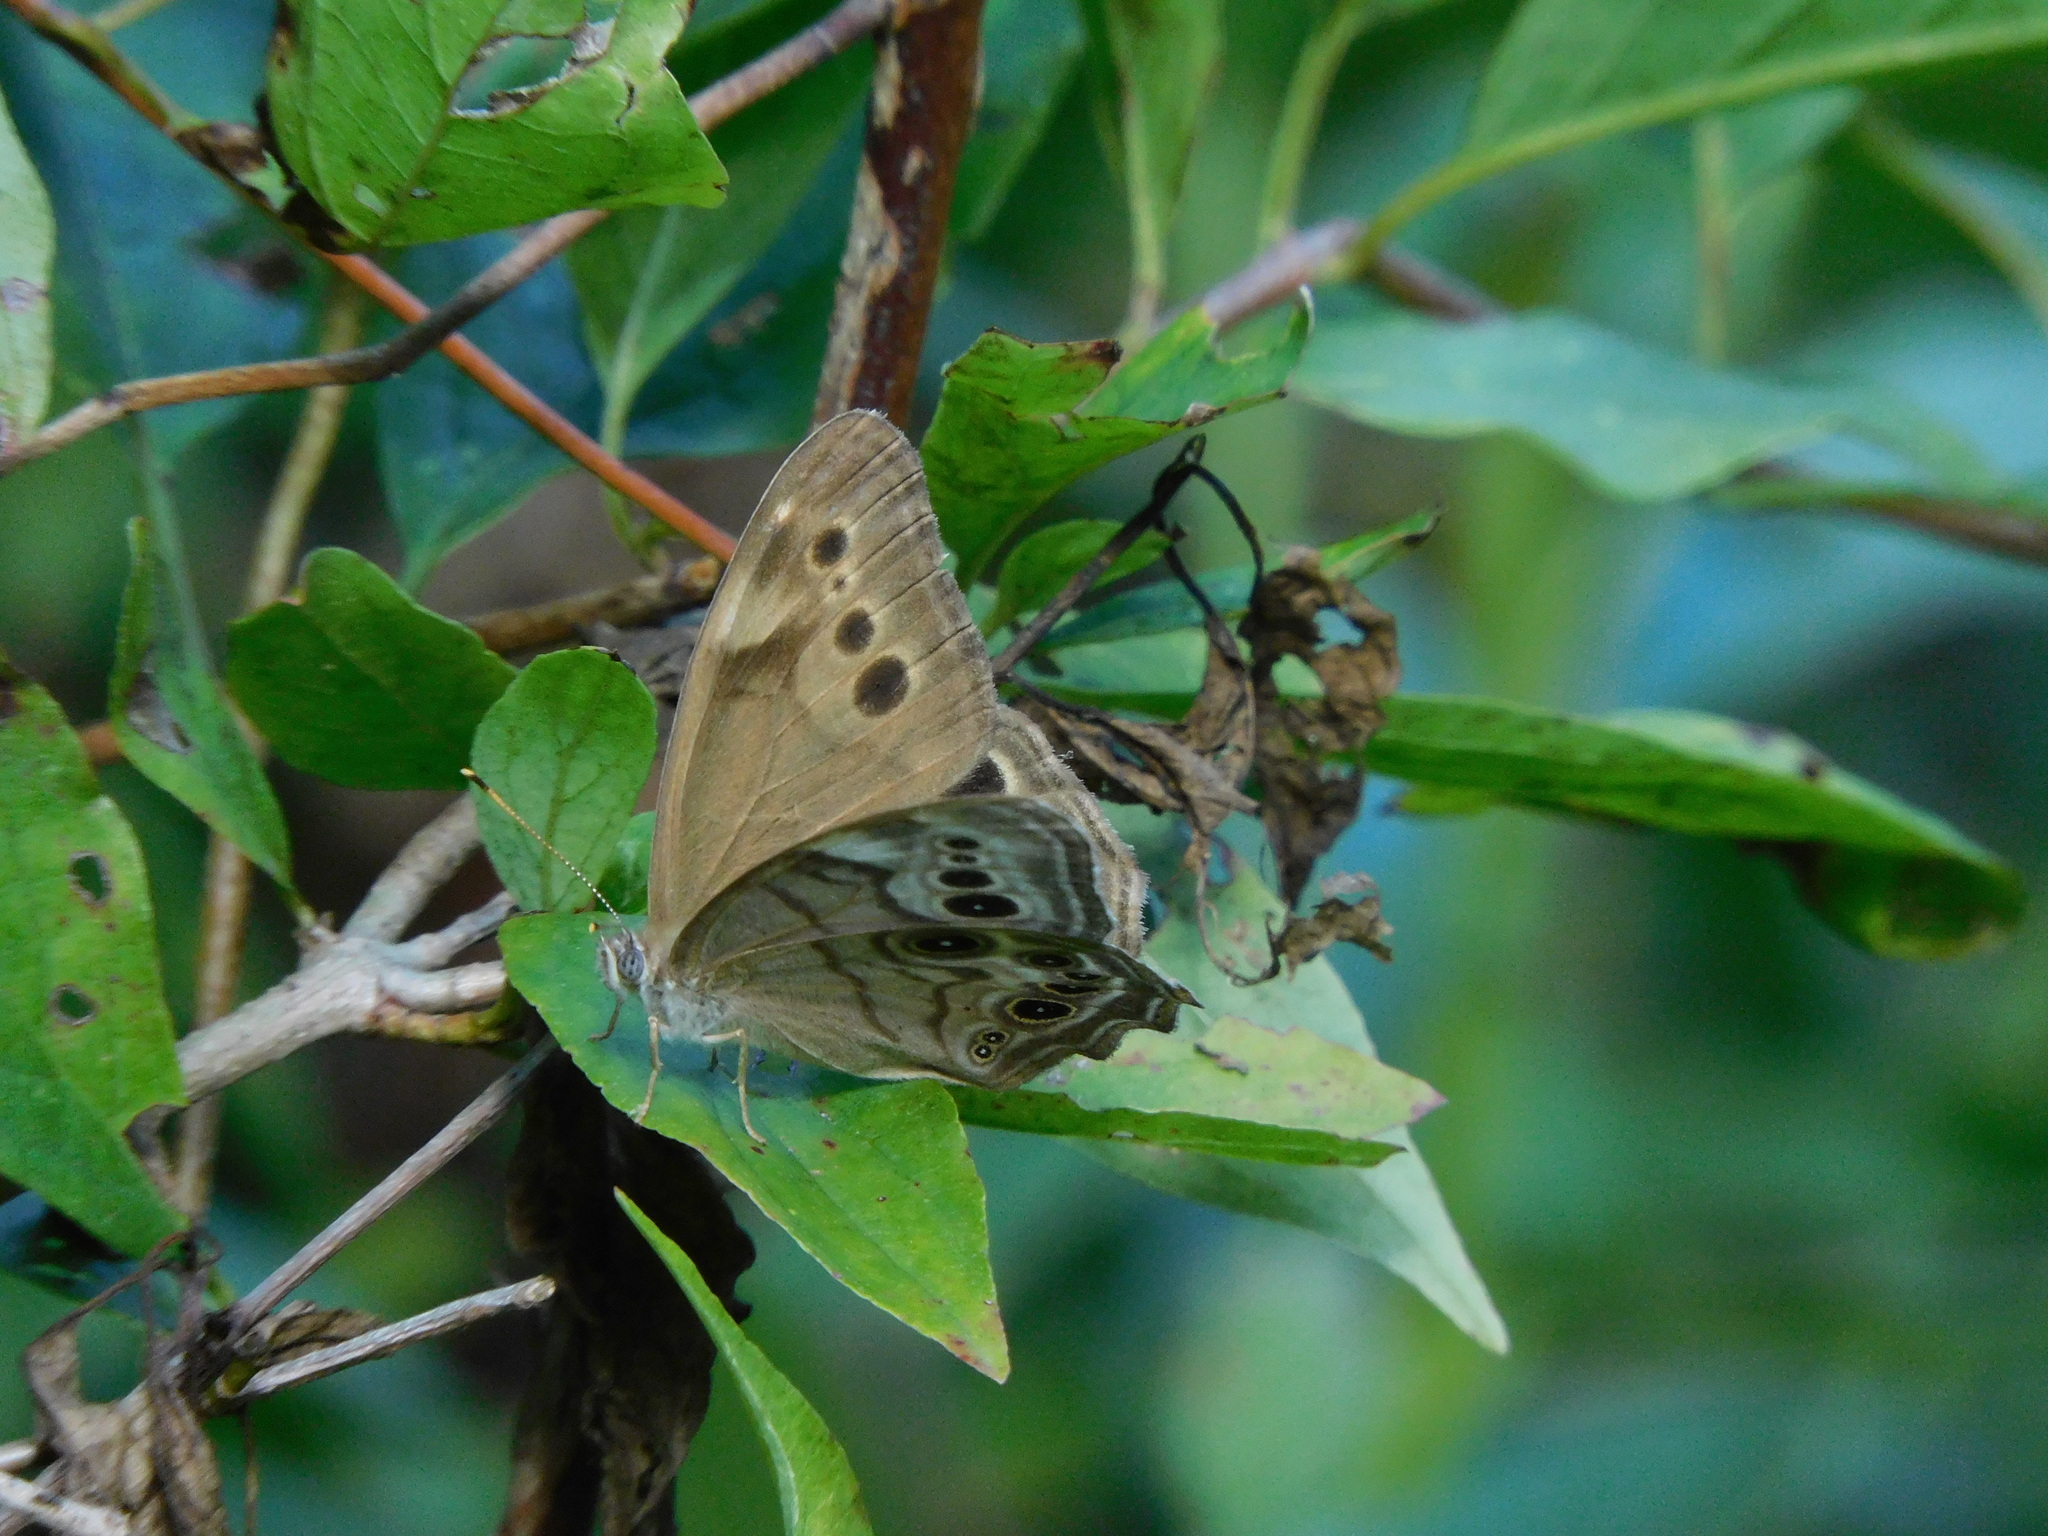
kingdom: Animalia
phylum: Arthropoda
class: Insecta
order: Lepidoptera
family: Nymphalidae
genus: Lethe
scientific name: Lethe anthedon
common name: Northern pearly-eye
